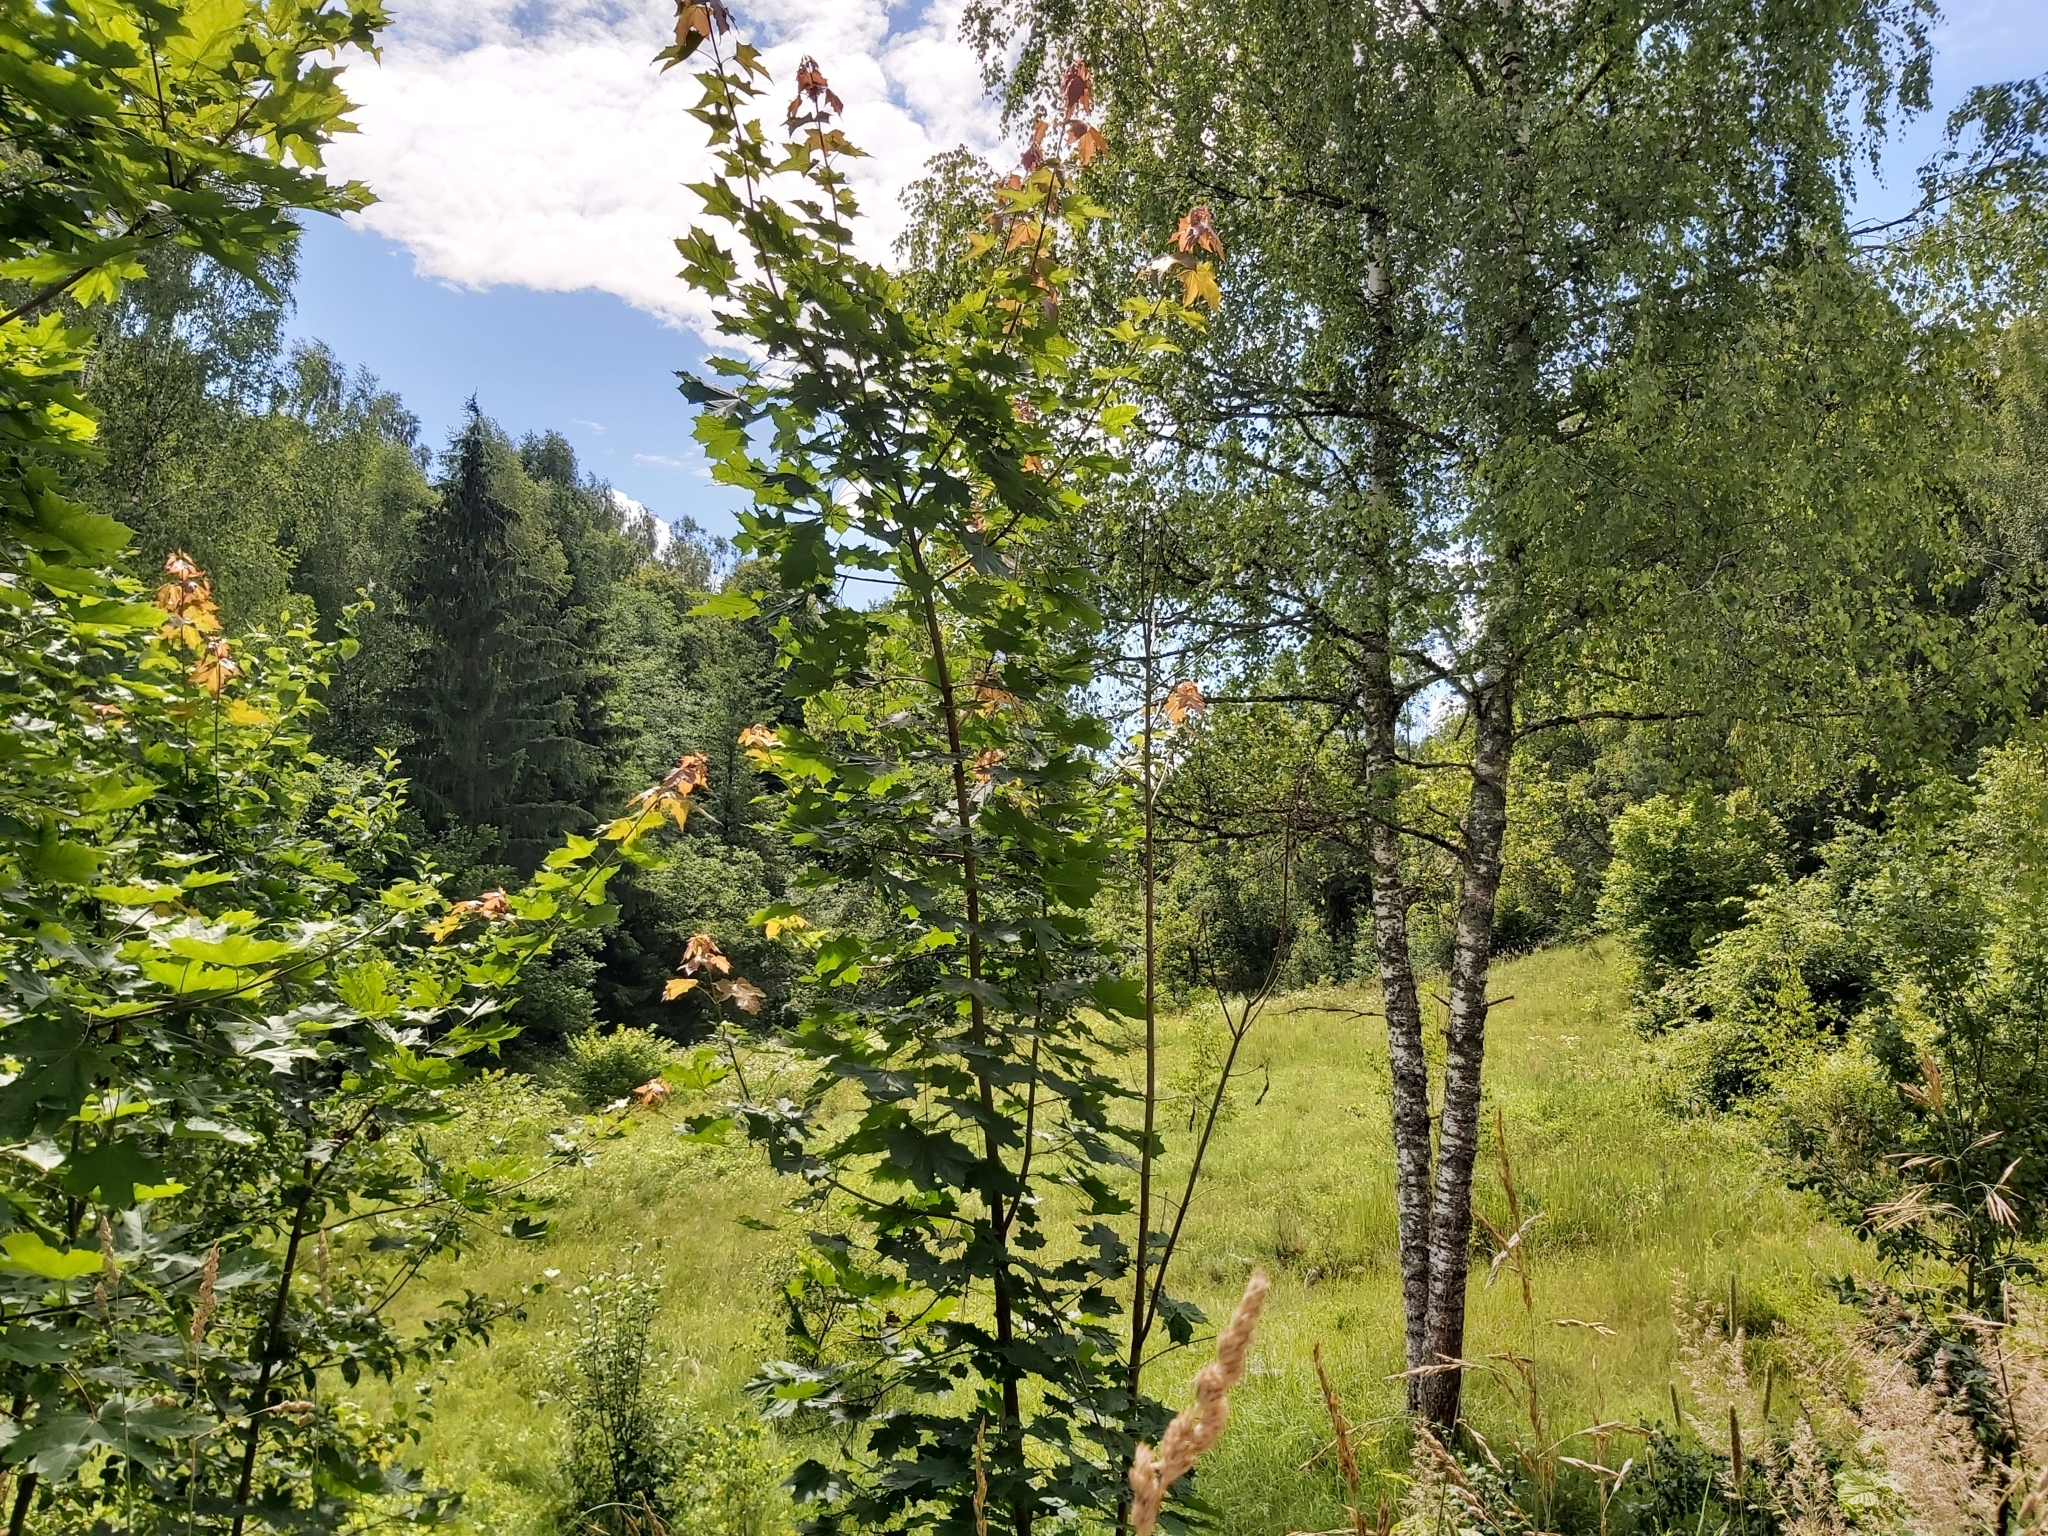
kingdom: Animalia
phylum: Chordata
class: Aves
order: Passeriformes
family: Sylviidae
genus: Sylvia
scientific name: Sylvia atricapilla
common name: Eurasian blackcap
